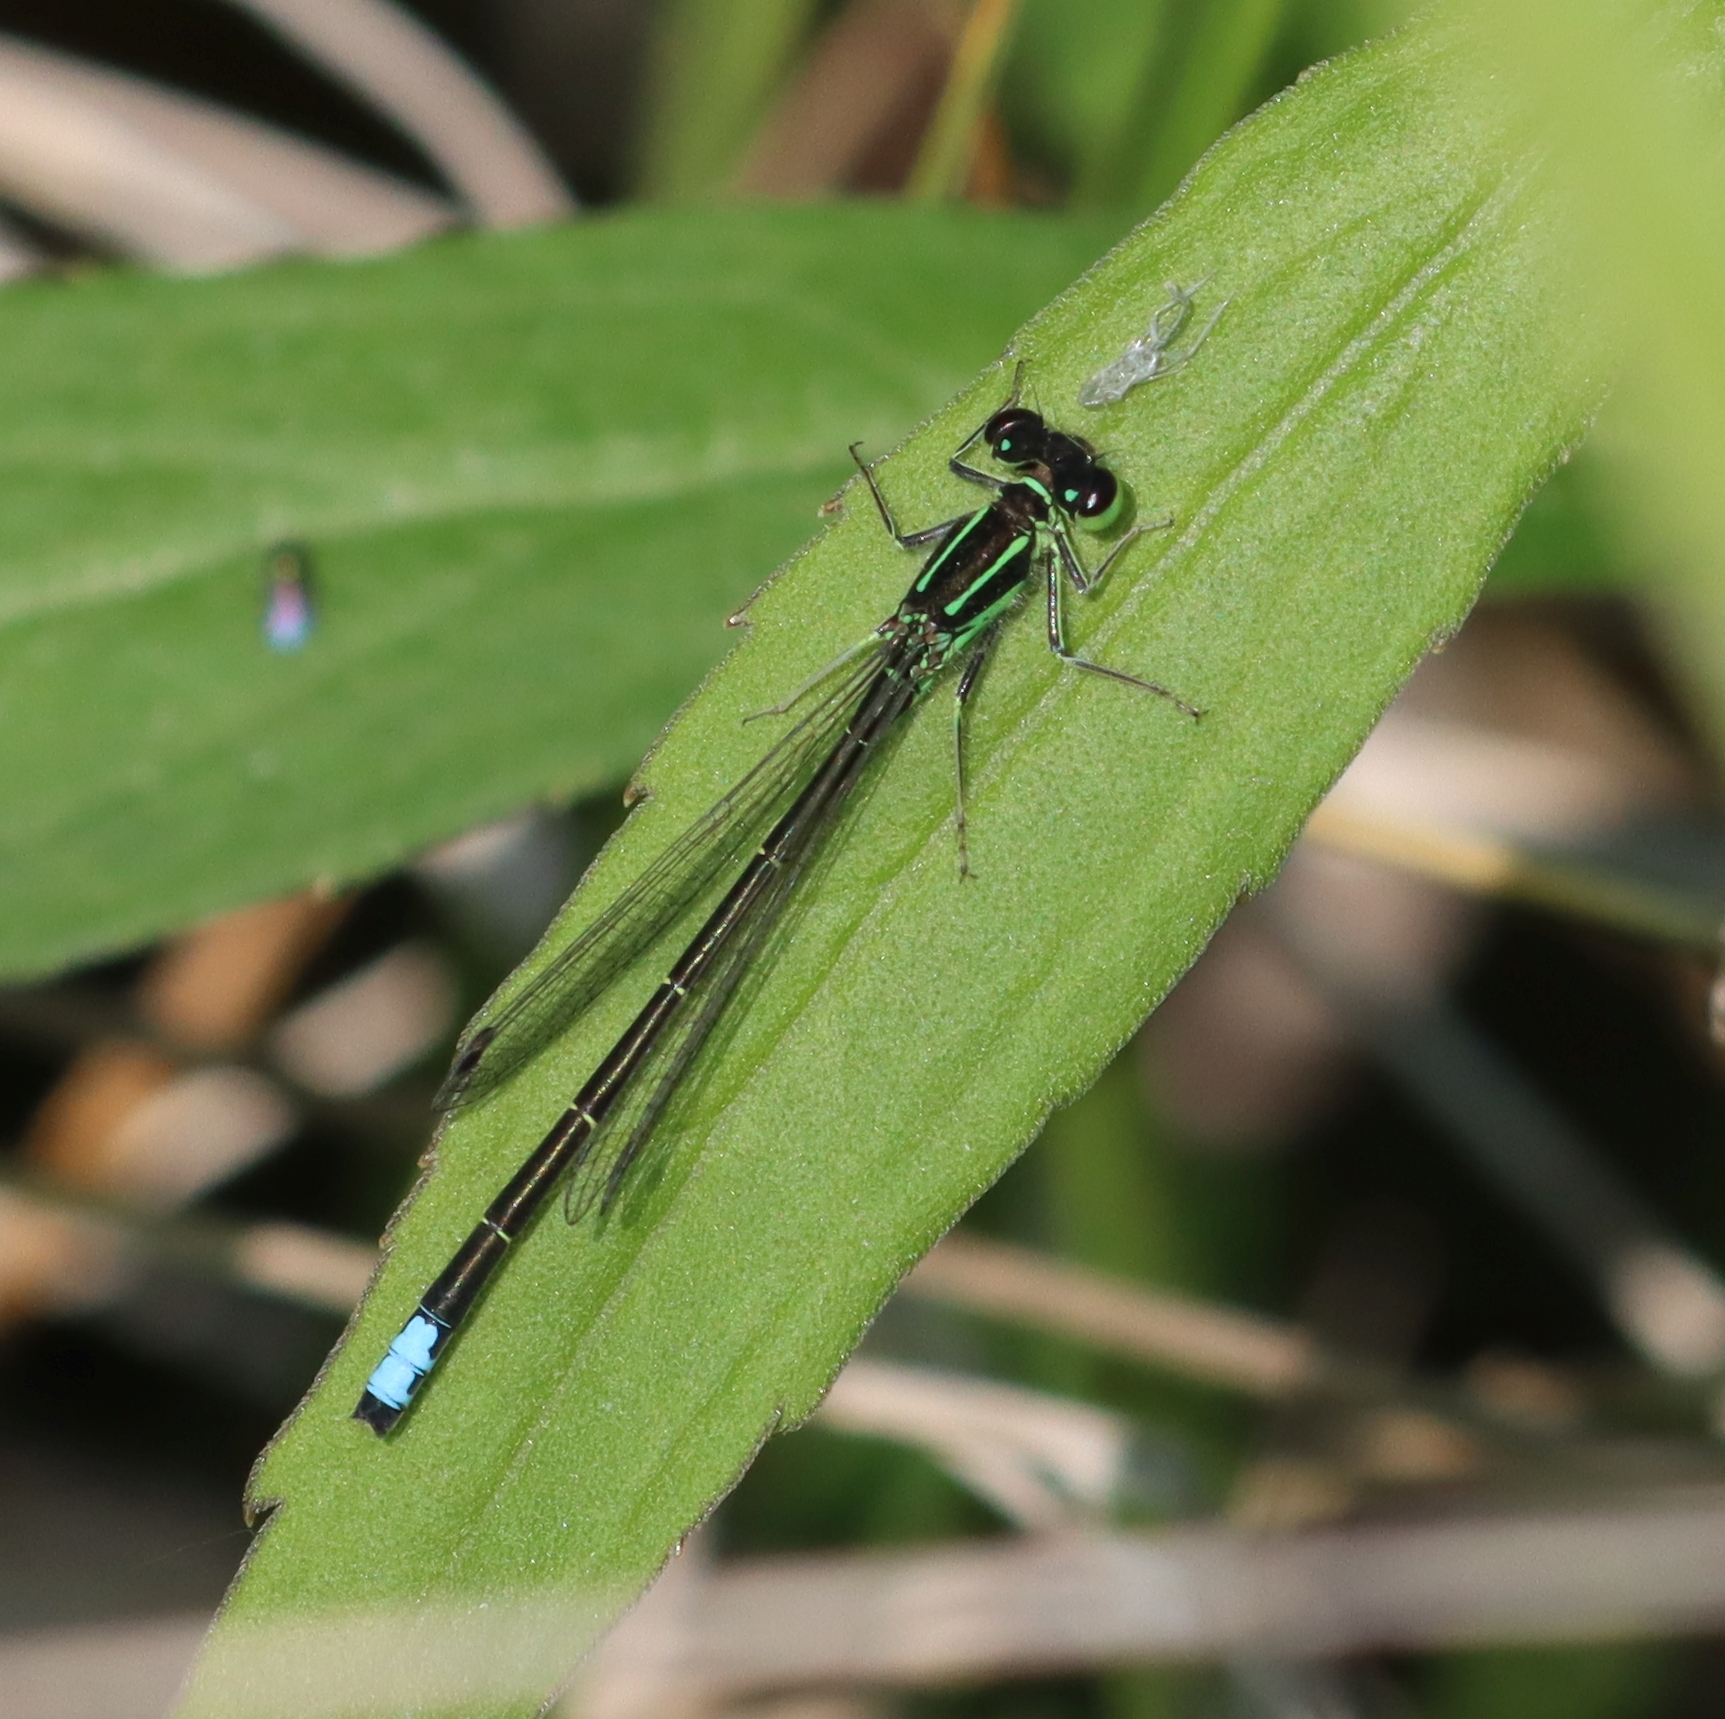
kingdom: Animalia
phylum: Arthropoda
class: Insecta
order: Odonata
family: Coenagrionidae
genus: Ischnura
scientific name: Ischnura verticalis
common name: Eastern forktail
